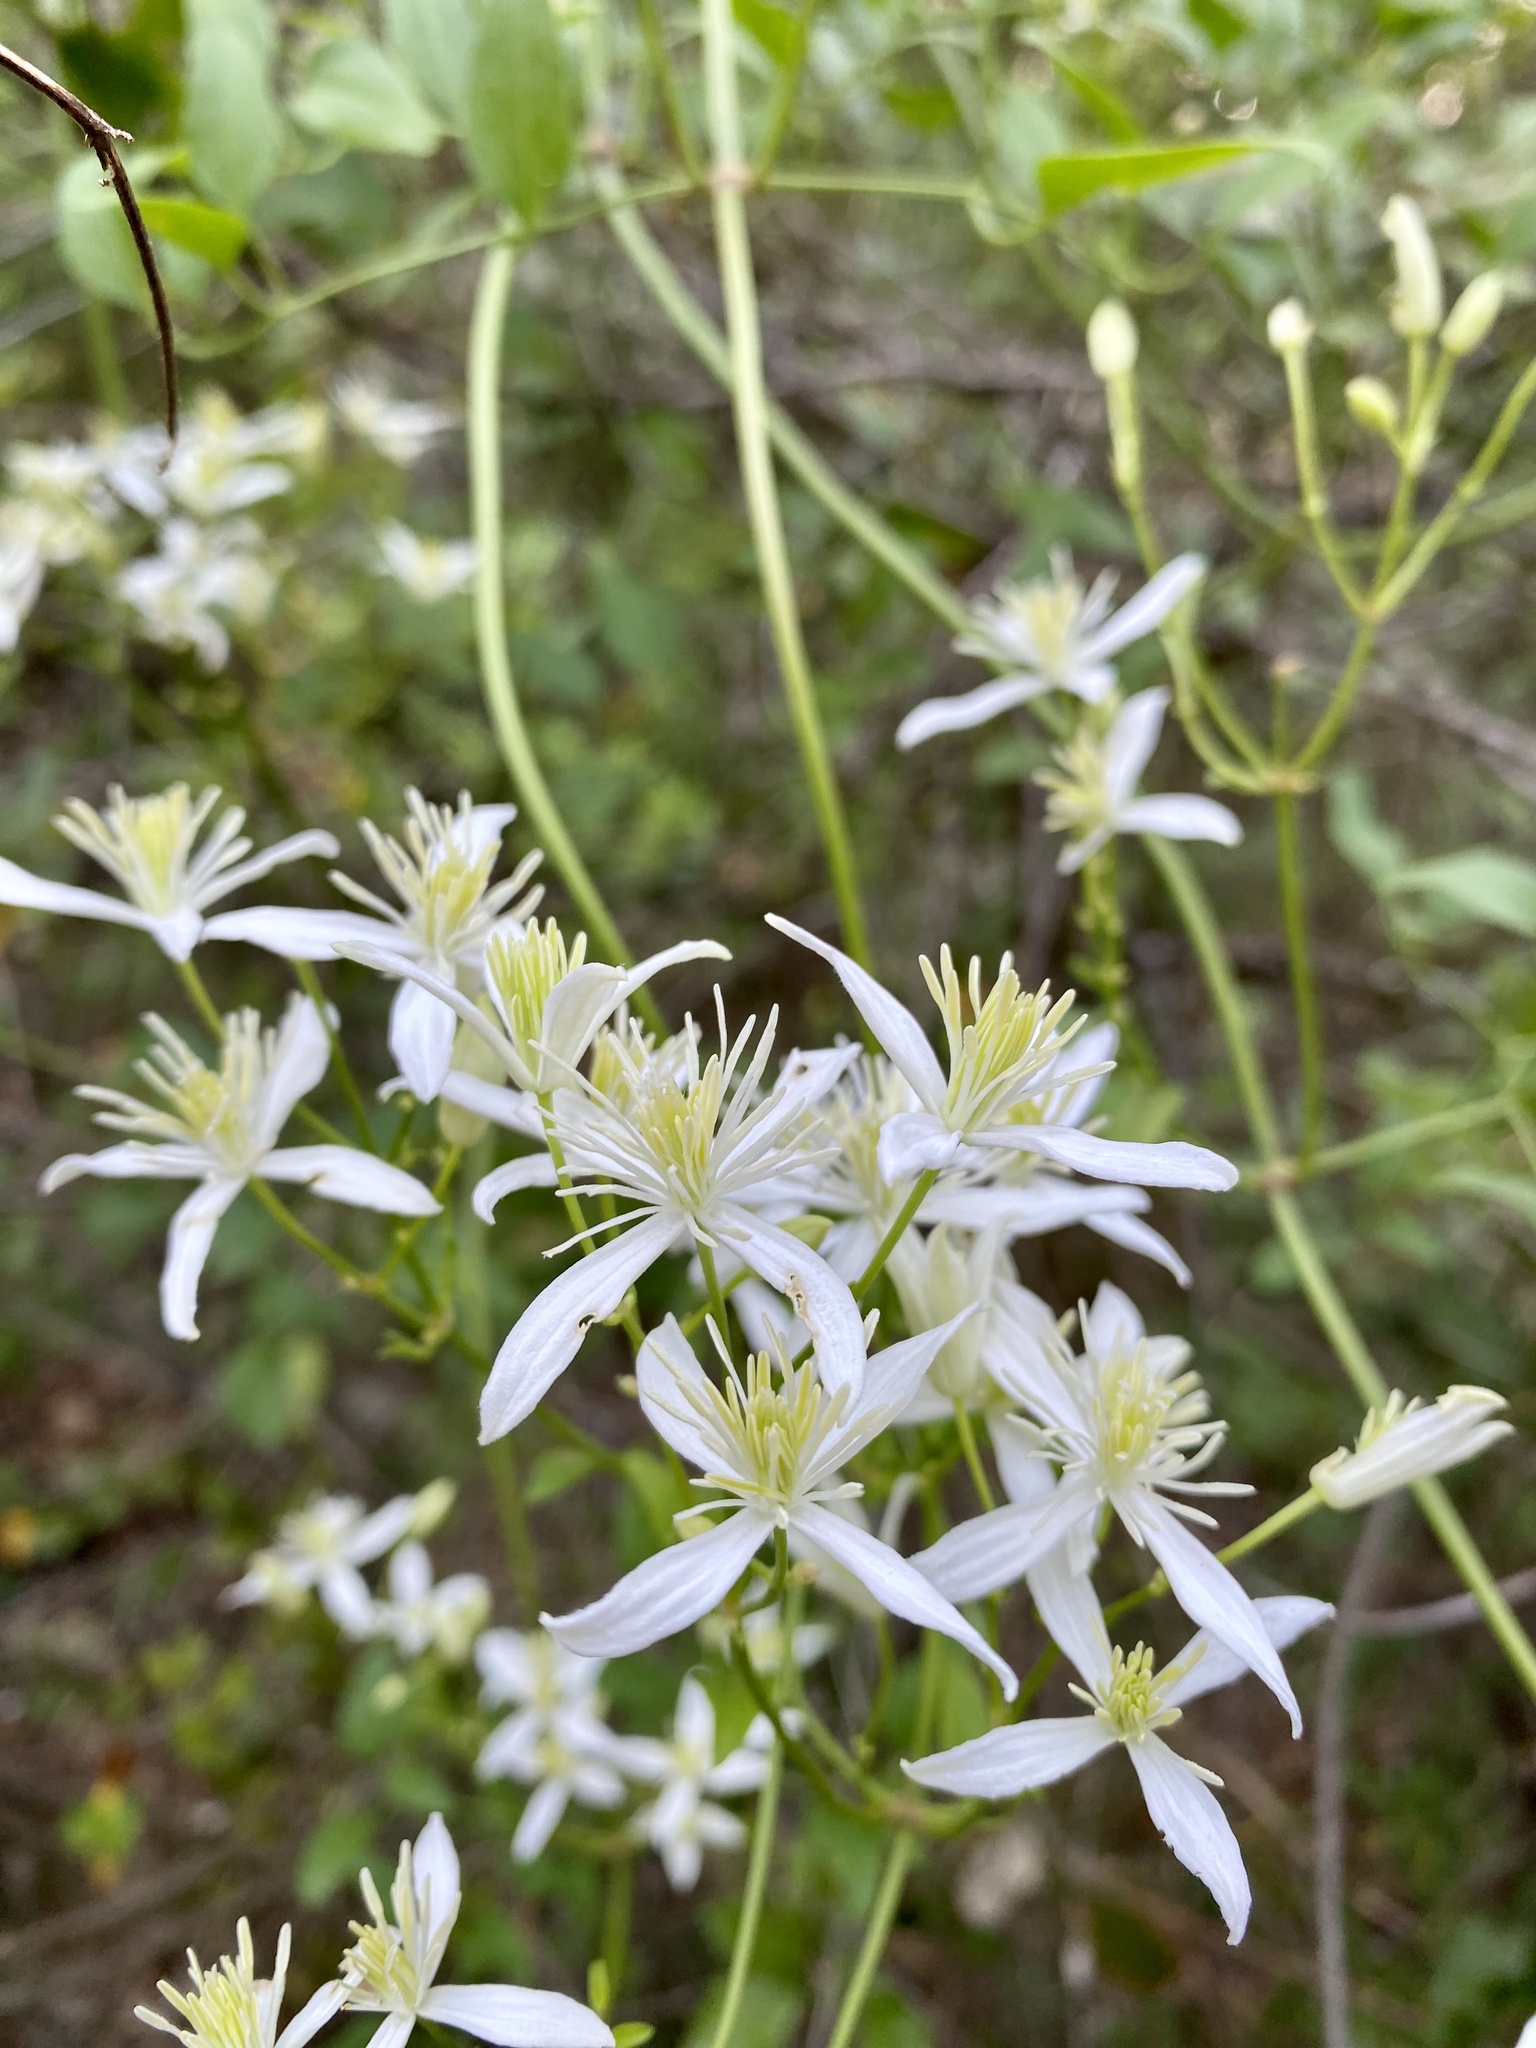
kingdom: Plantae
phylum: Tracheophyta
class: Magnoliopsida
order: Ranunculales
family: Ranunculaceae
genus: Clematis
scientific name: Clematis flammula
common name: Virgin's-bower
